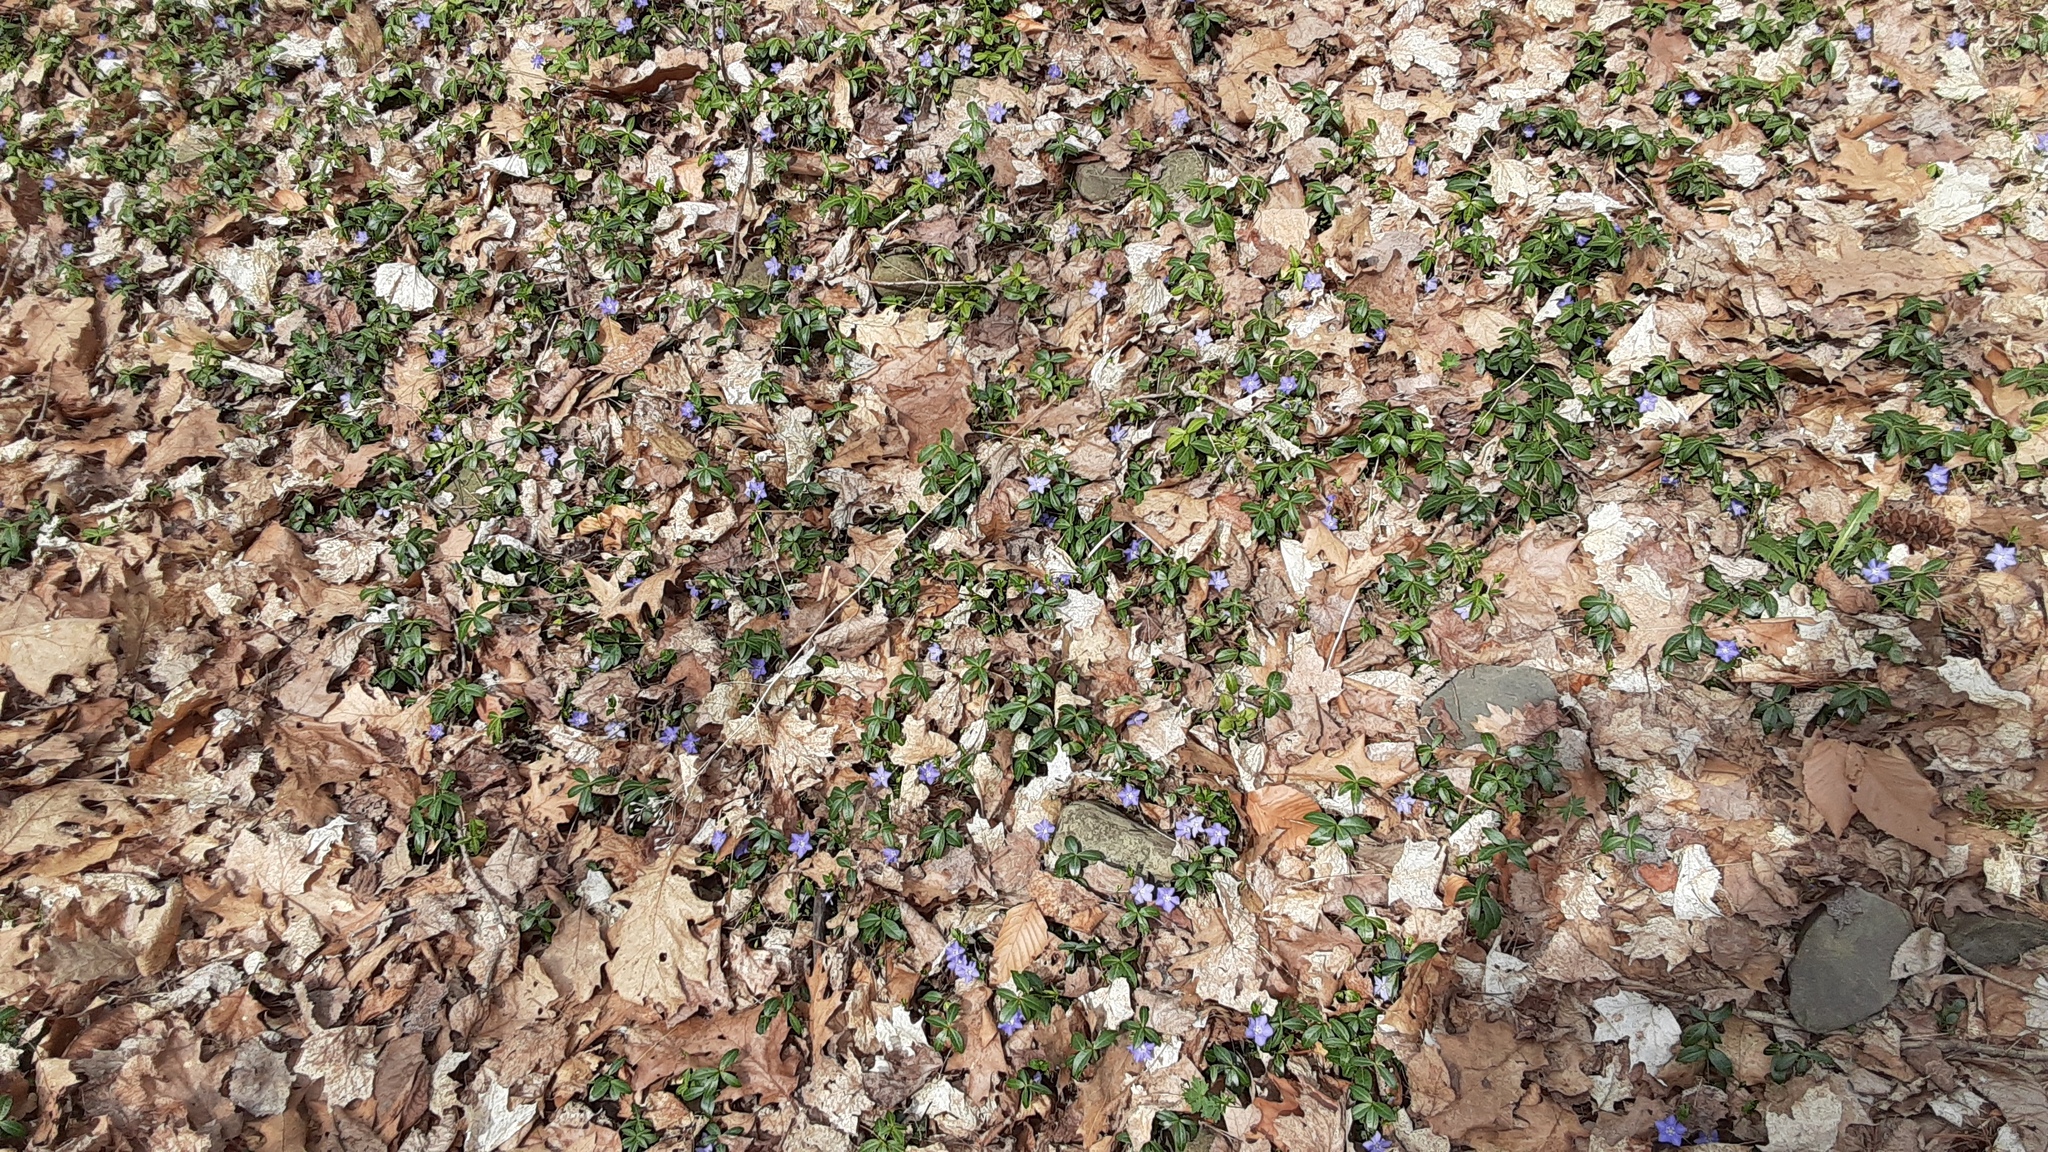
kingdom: Plantae
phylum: Tracheophyta
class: Magnoliopsida
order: Gentianales
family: Apocynaceae
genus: Vinca
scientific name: Vinca minor
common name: Lesser periwinkle
